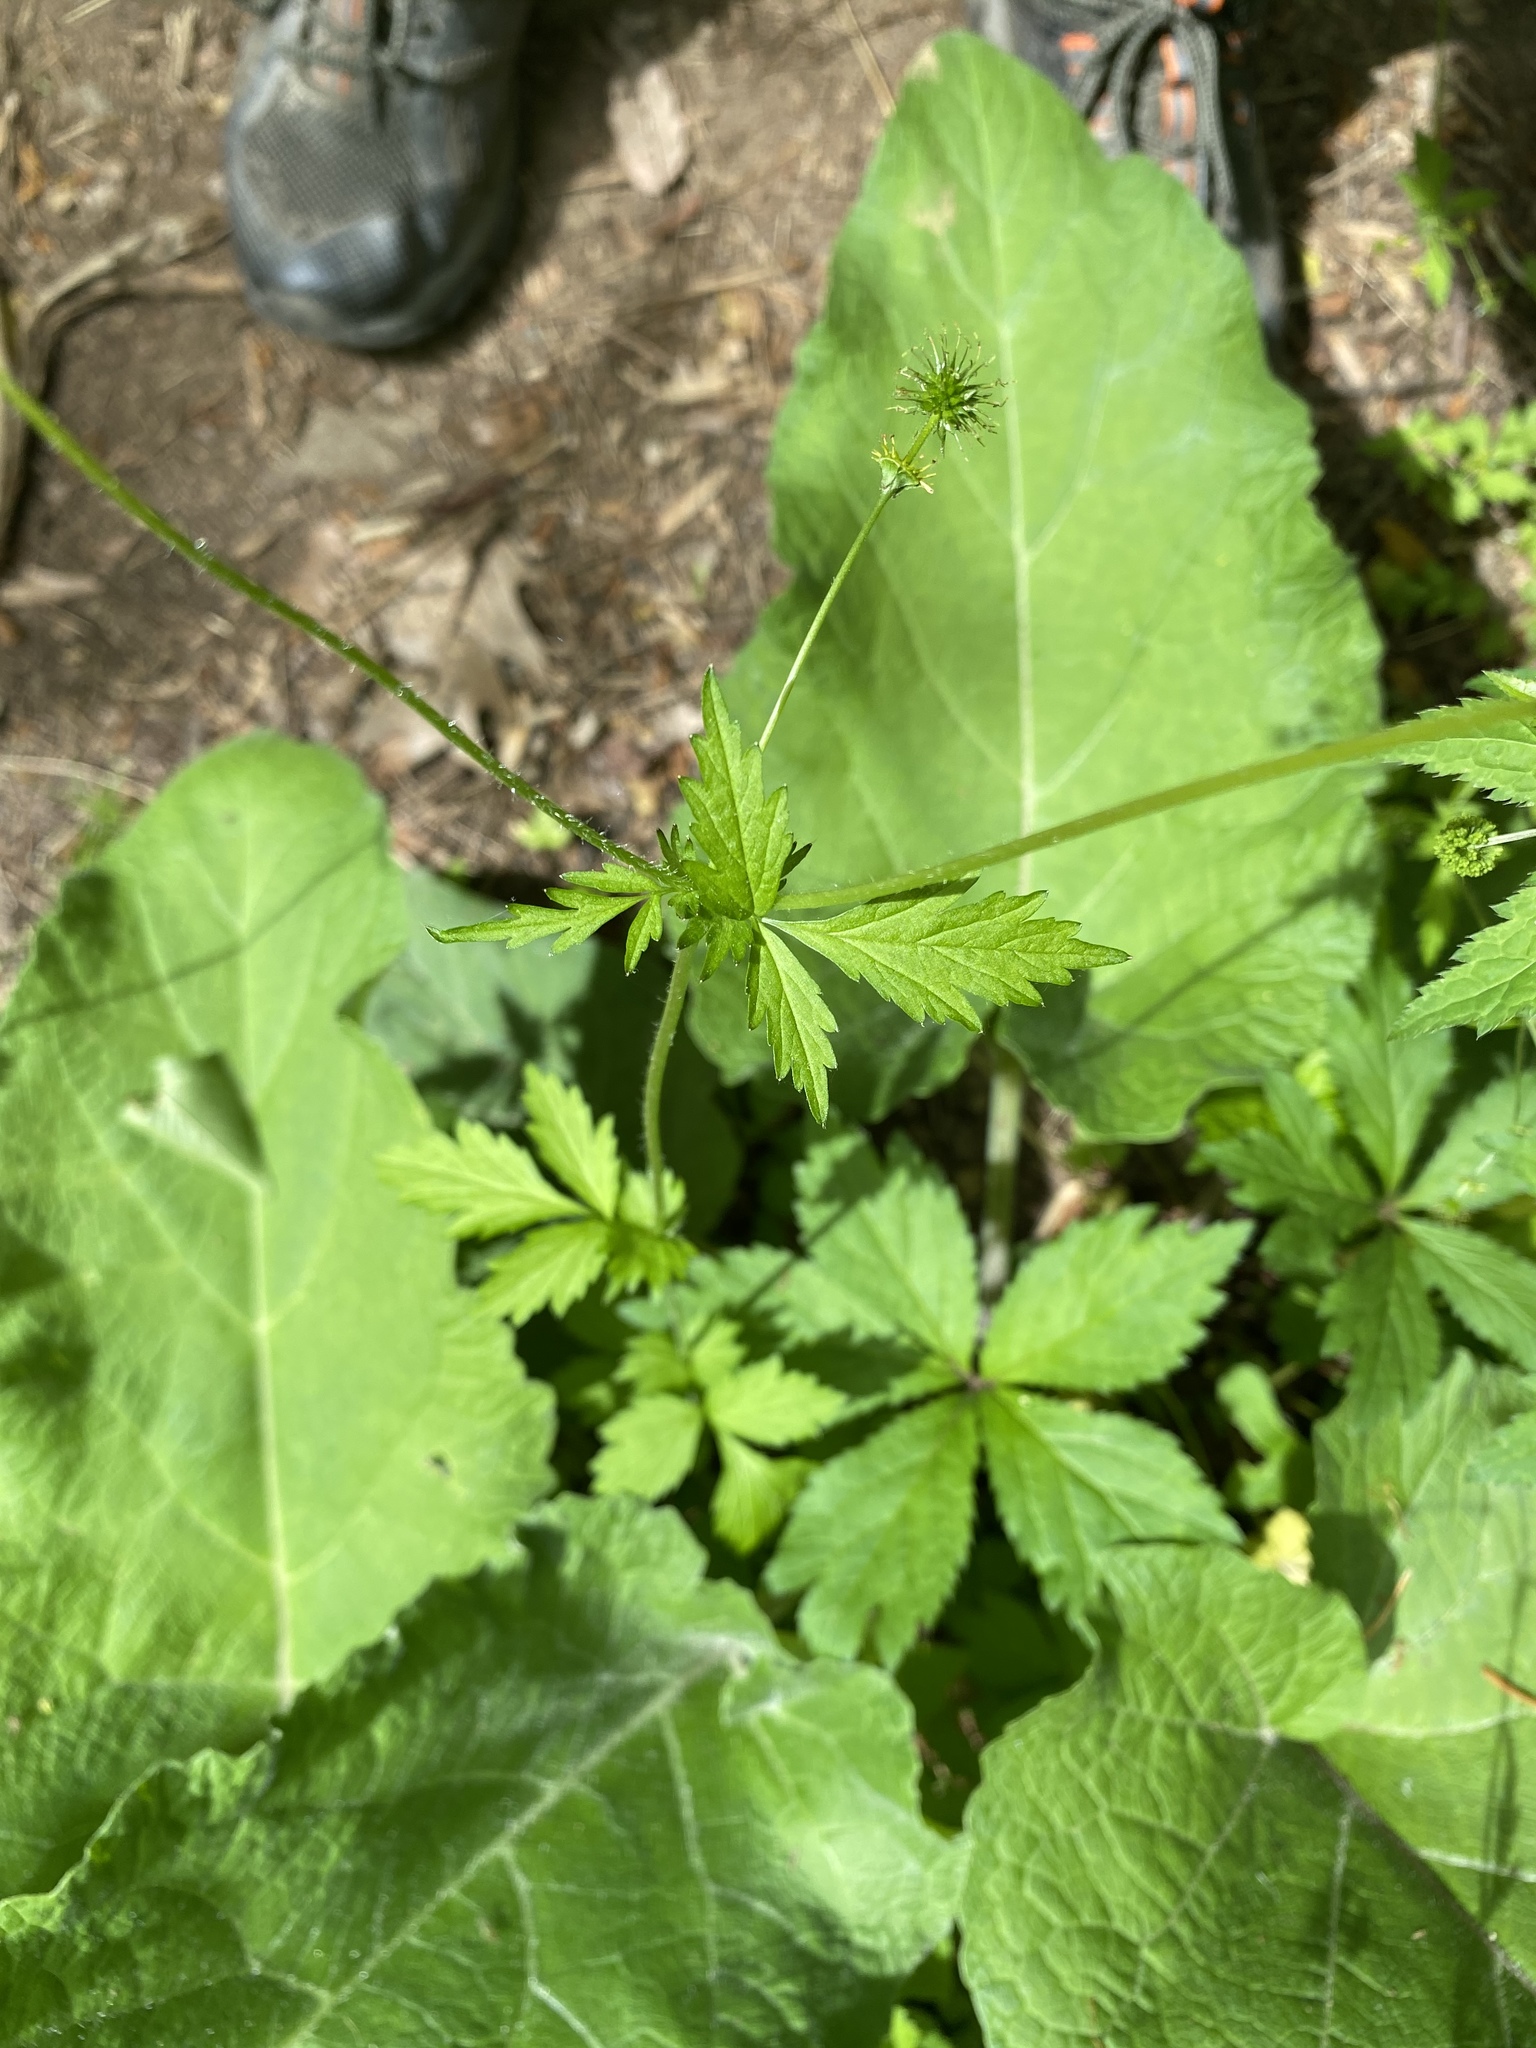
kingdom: Plantae
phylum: Tracheophyta
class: Magnoliopsida
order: Rosales
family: Rosaceae
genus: Geum
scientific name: Geum vernum
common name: Spring avens
